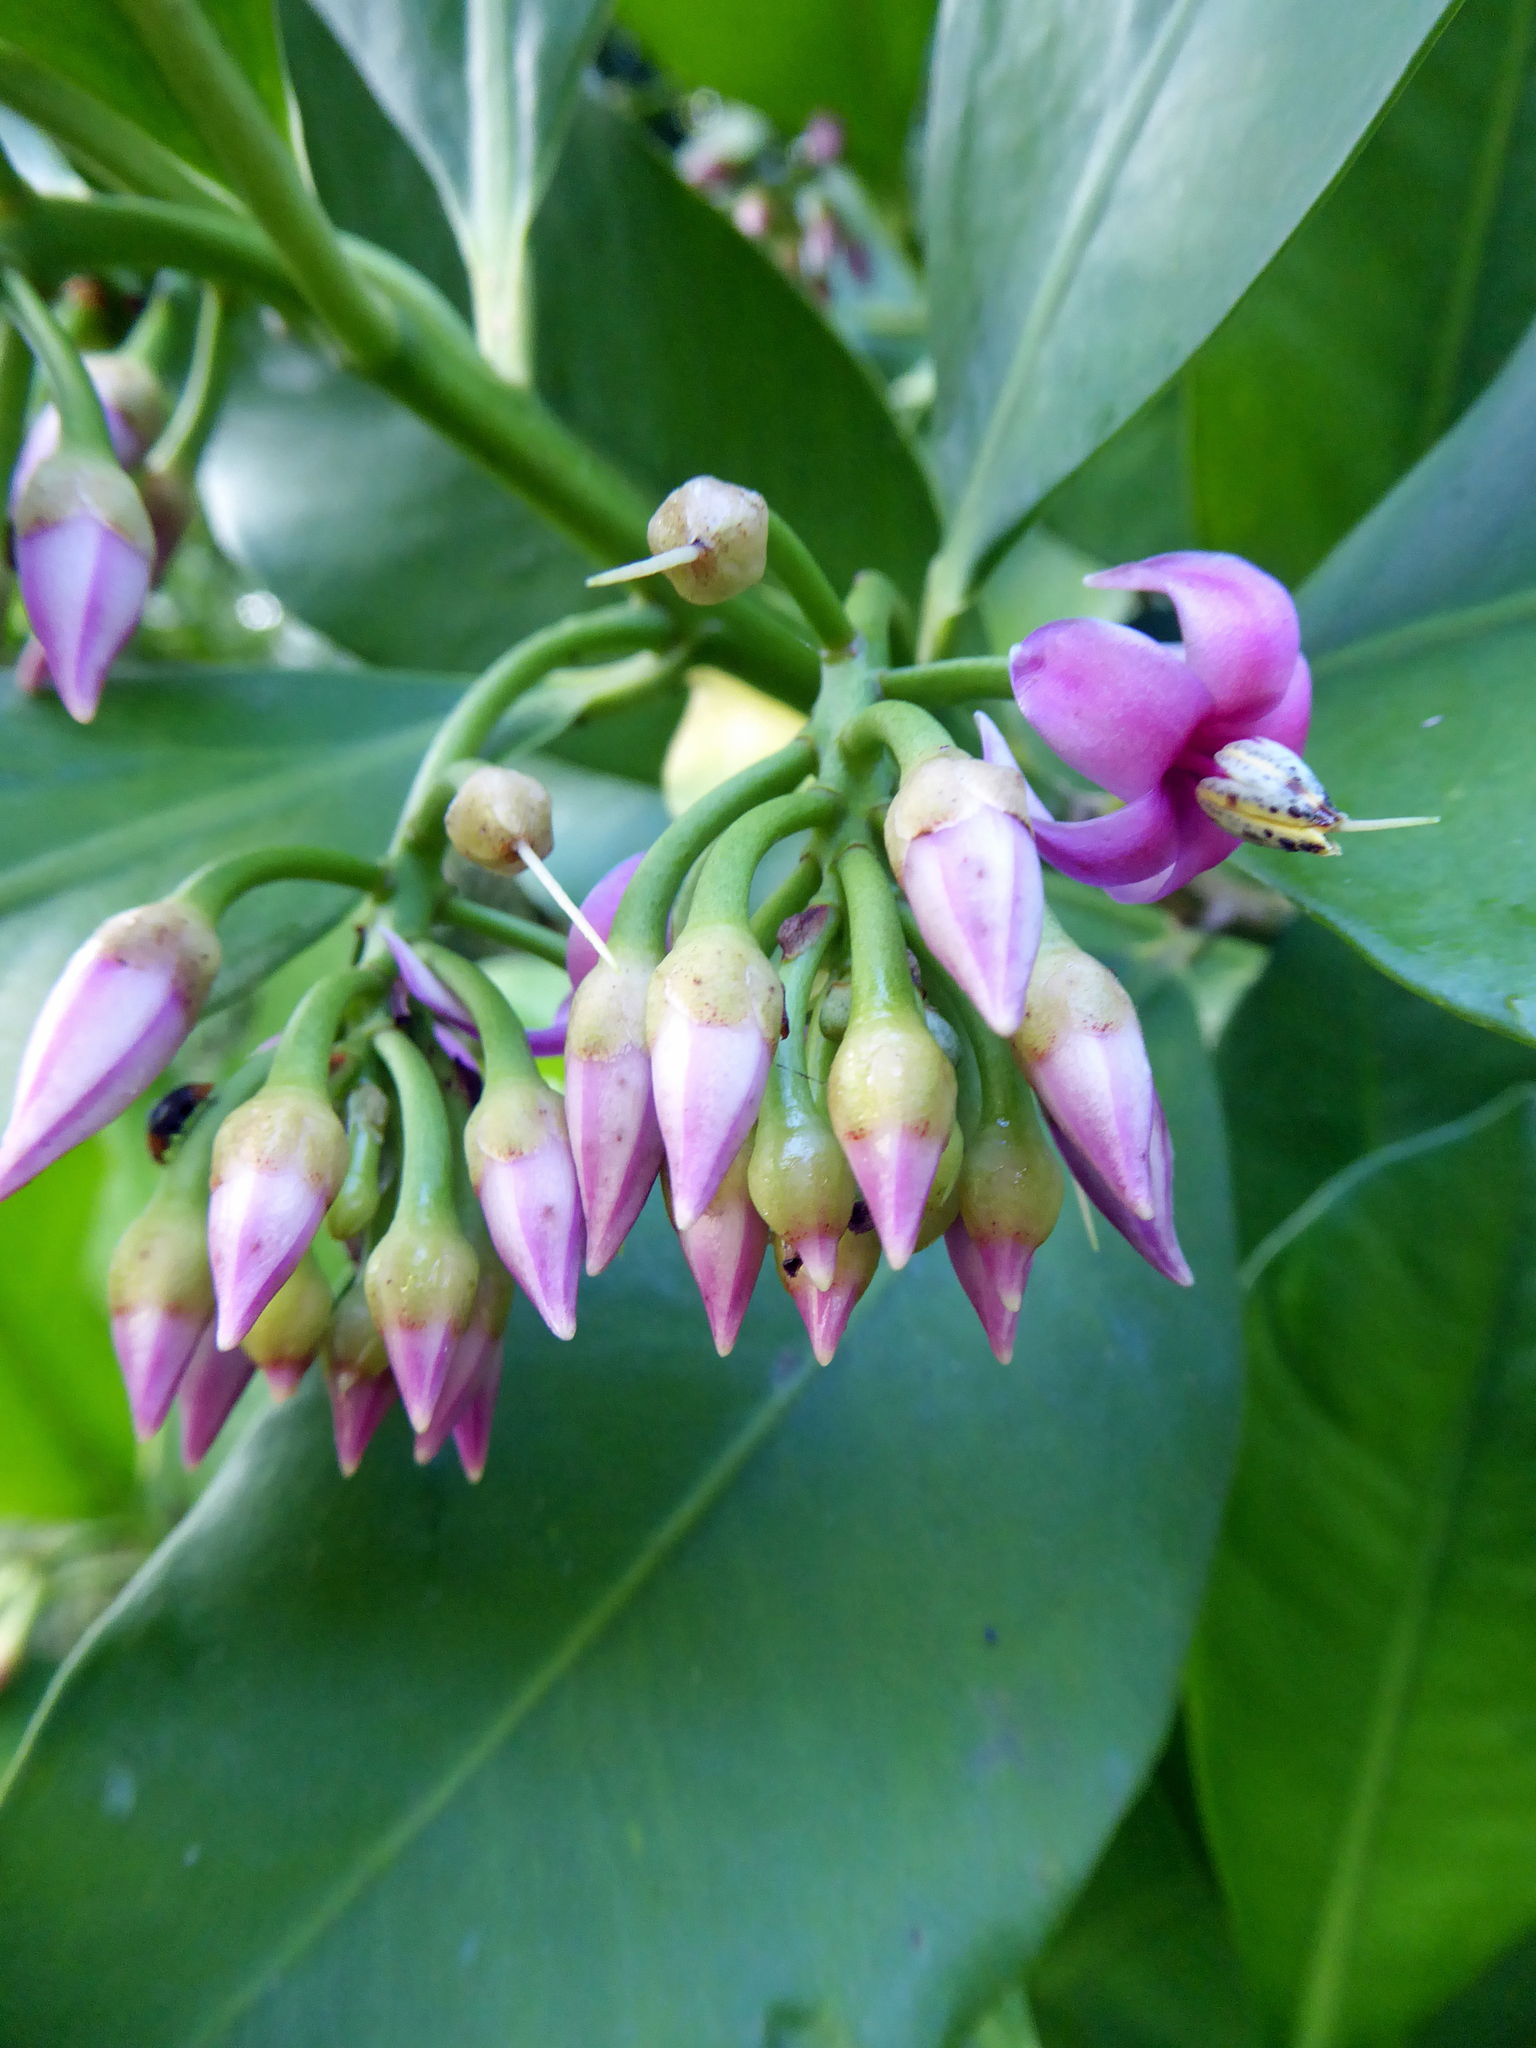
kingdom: Plantae
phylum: Tracheophyta
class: Magnoliopsida
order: Ericales
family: Primulaceae
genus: Ardisia
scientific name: Ardisia elliptica
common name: Shoebutton
